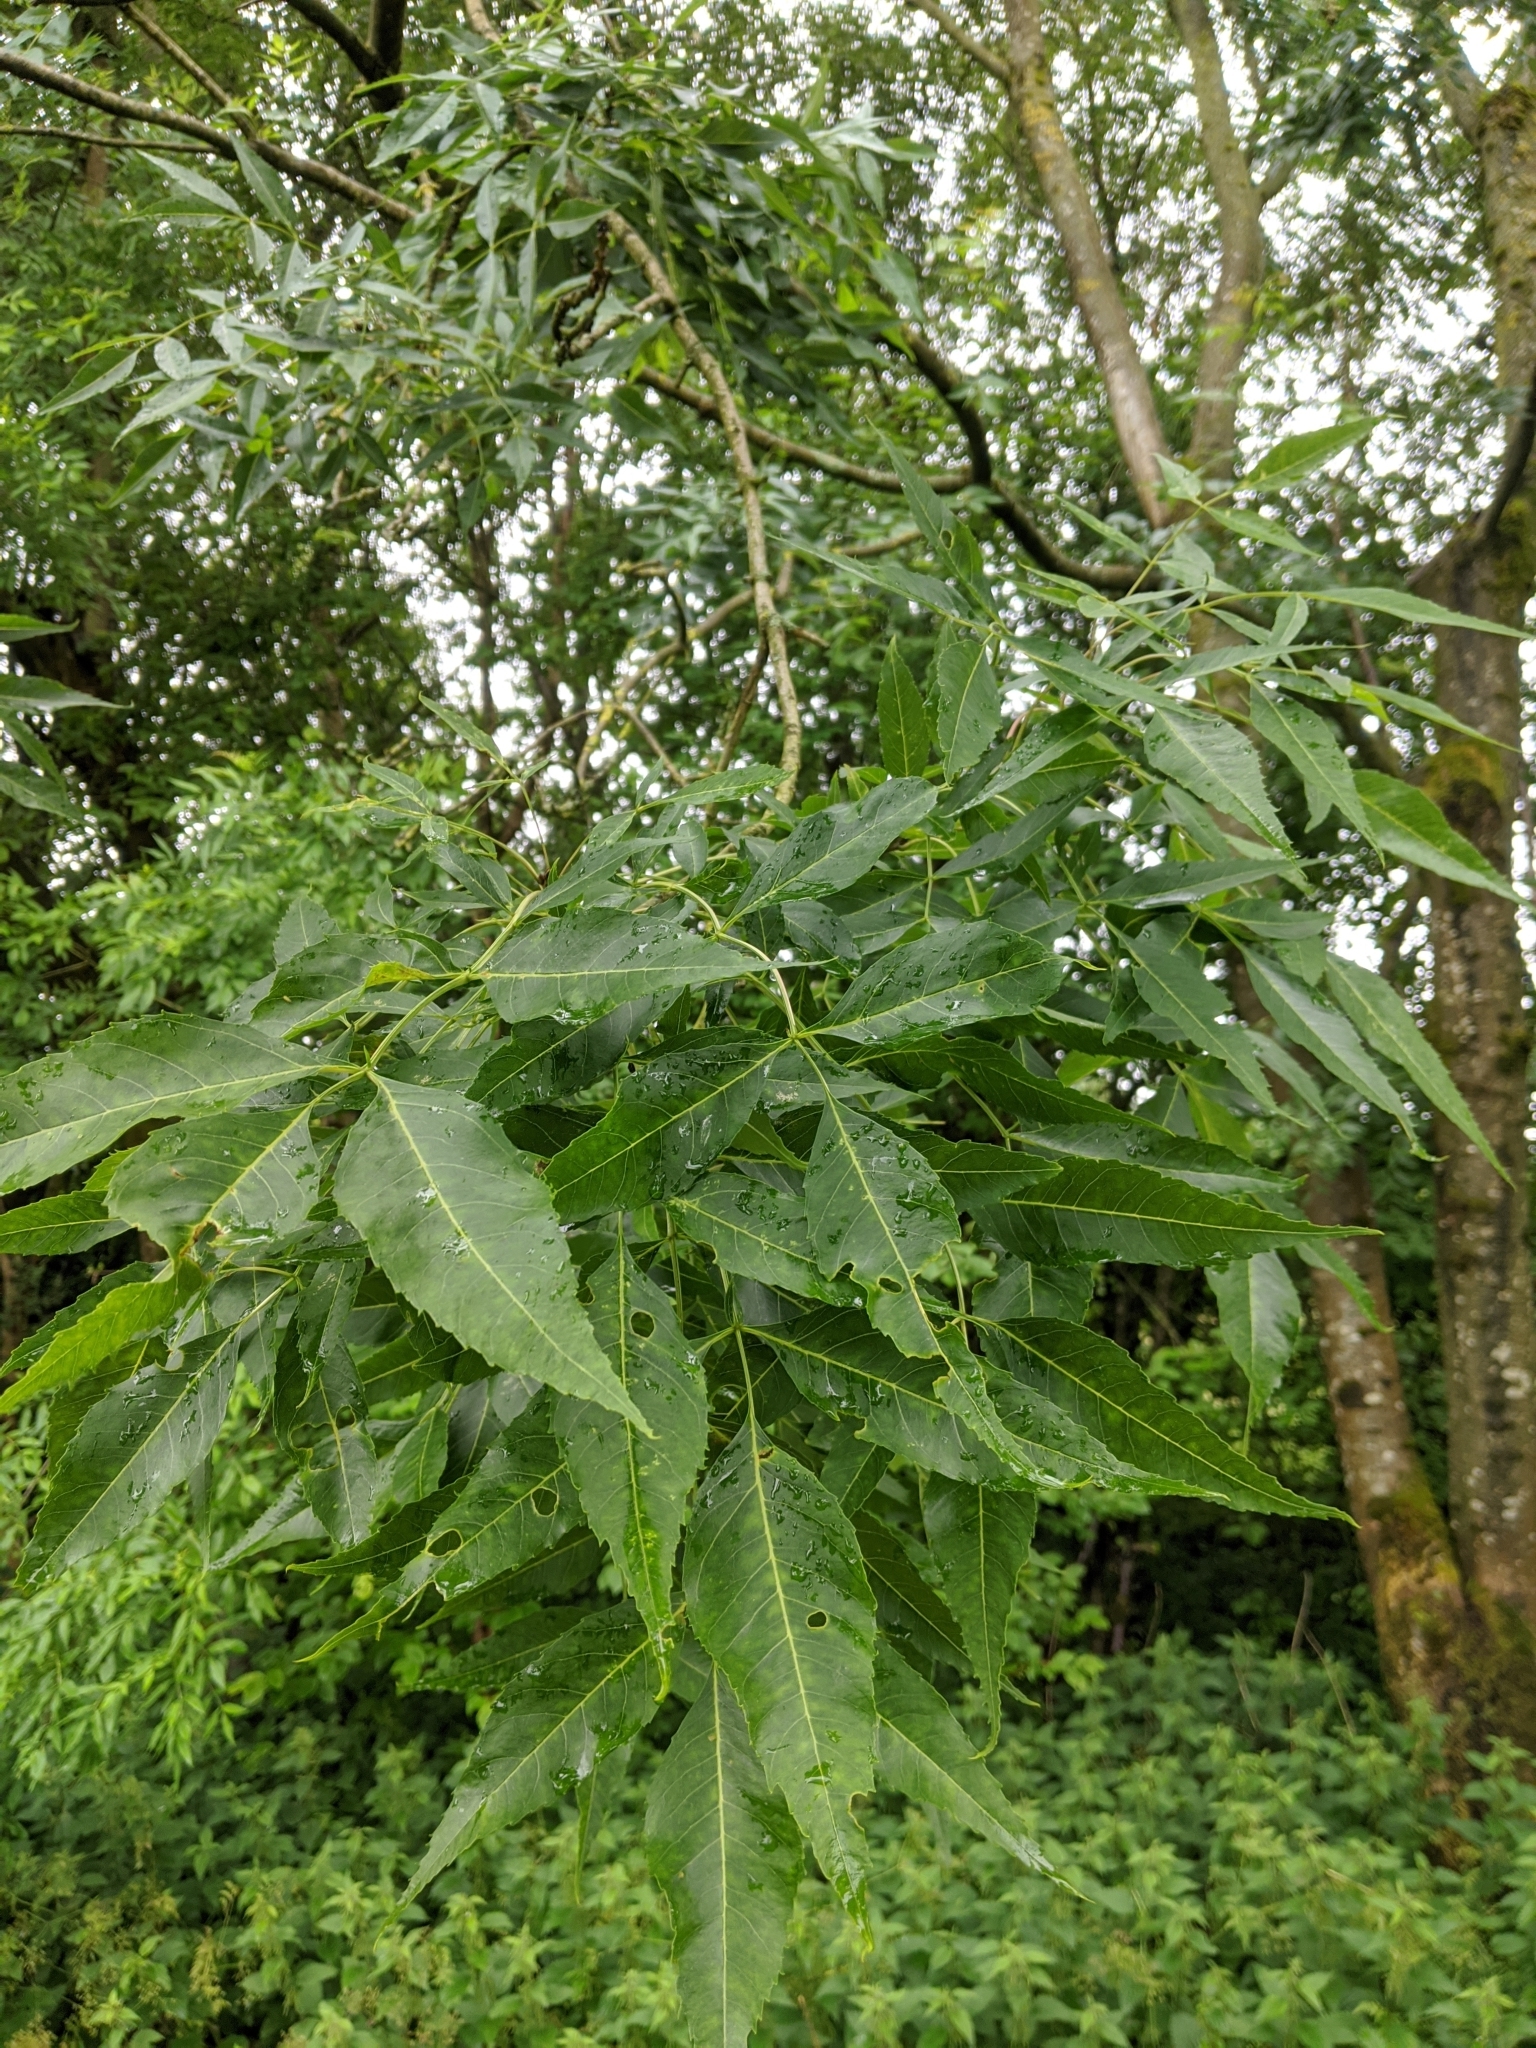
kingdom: Plantae
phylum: Tracheophyta
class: Magnoliopsida
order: Lamiales
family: Oleaceae
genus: Fraxinus
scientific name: Fraxinus excelsior
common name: European ash
